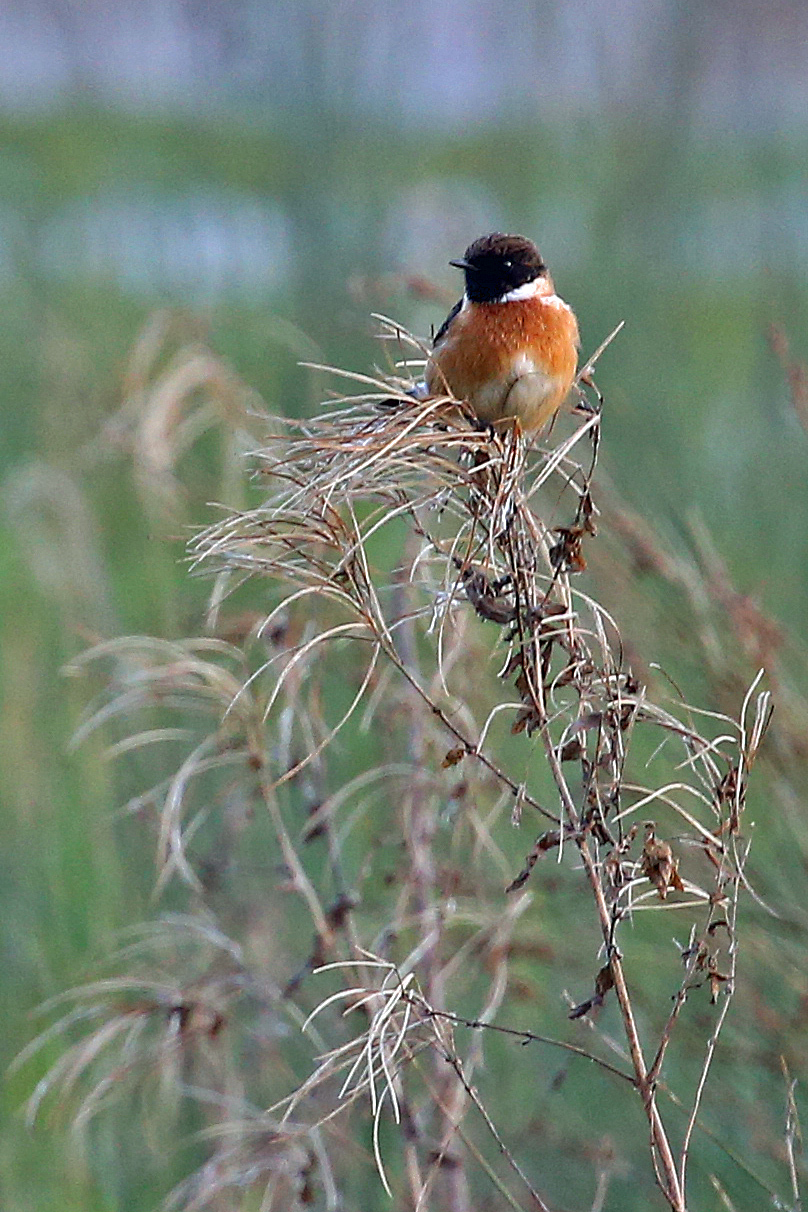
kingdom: Animalia
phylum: Chordata
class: Aves
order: Passeriformes
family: Muscicapidae
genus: Saxicola
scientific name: Saxicola rubicola
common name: European stonechat
